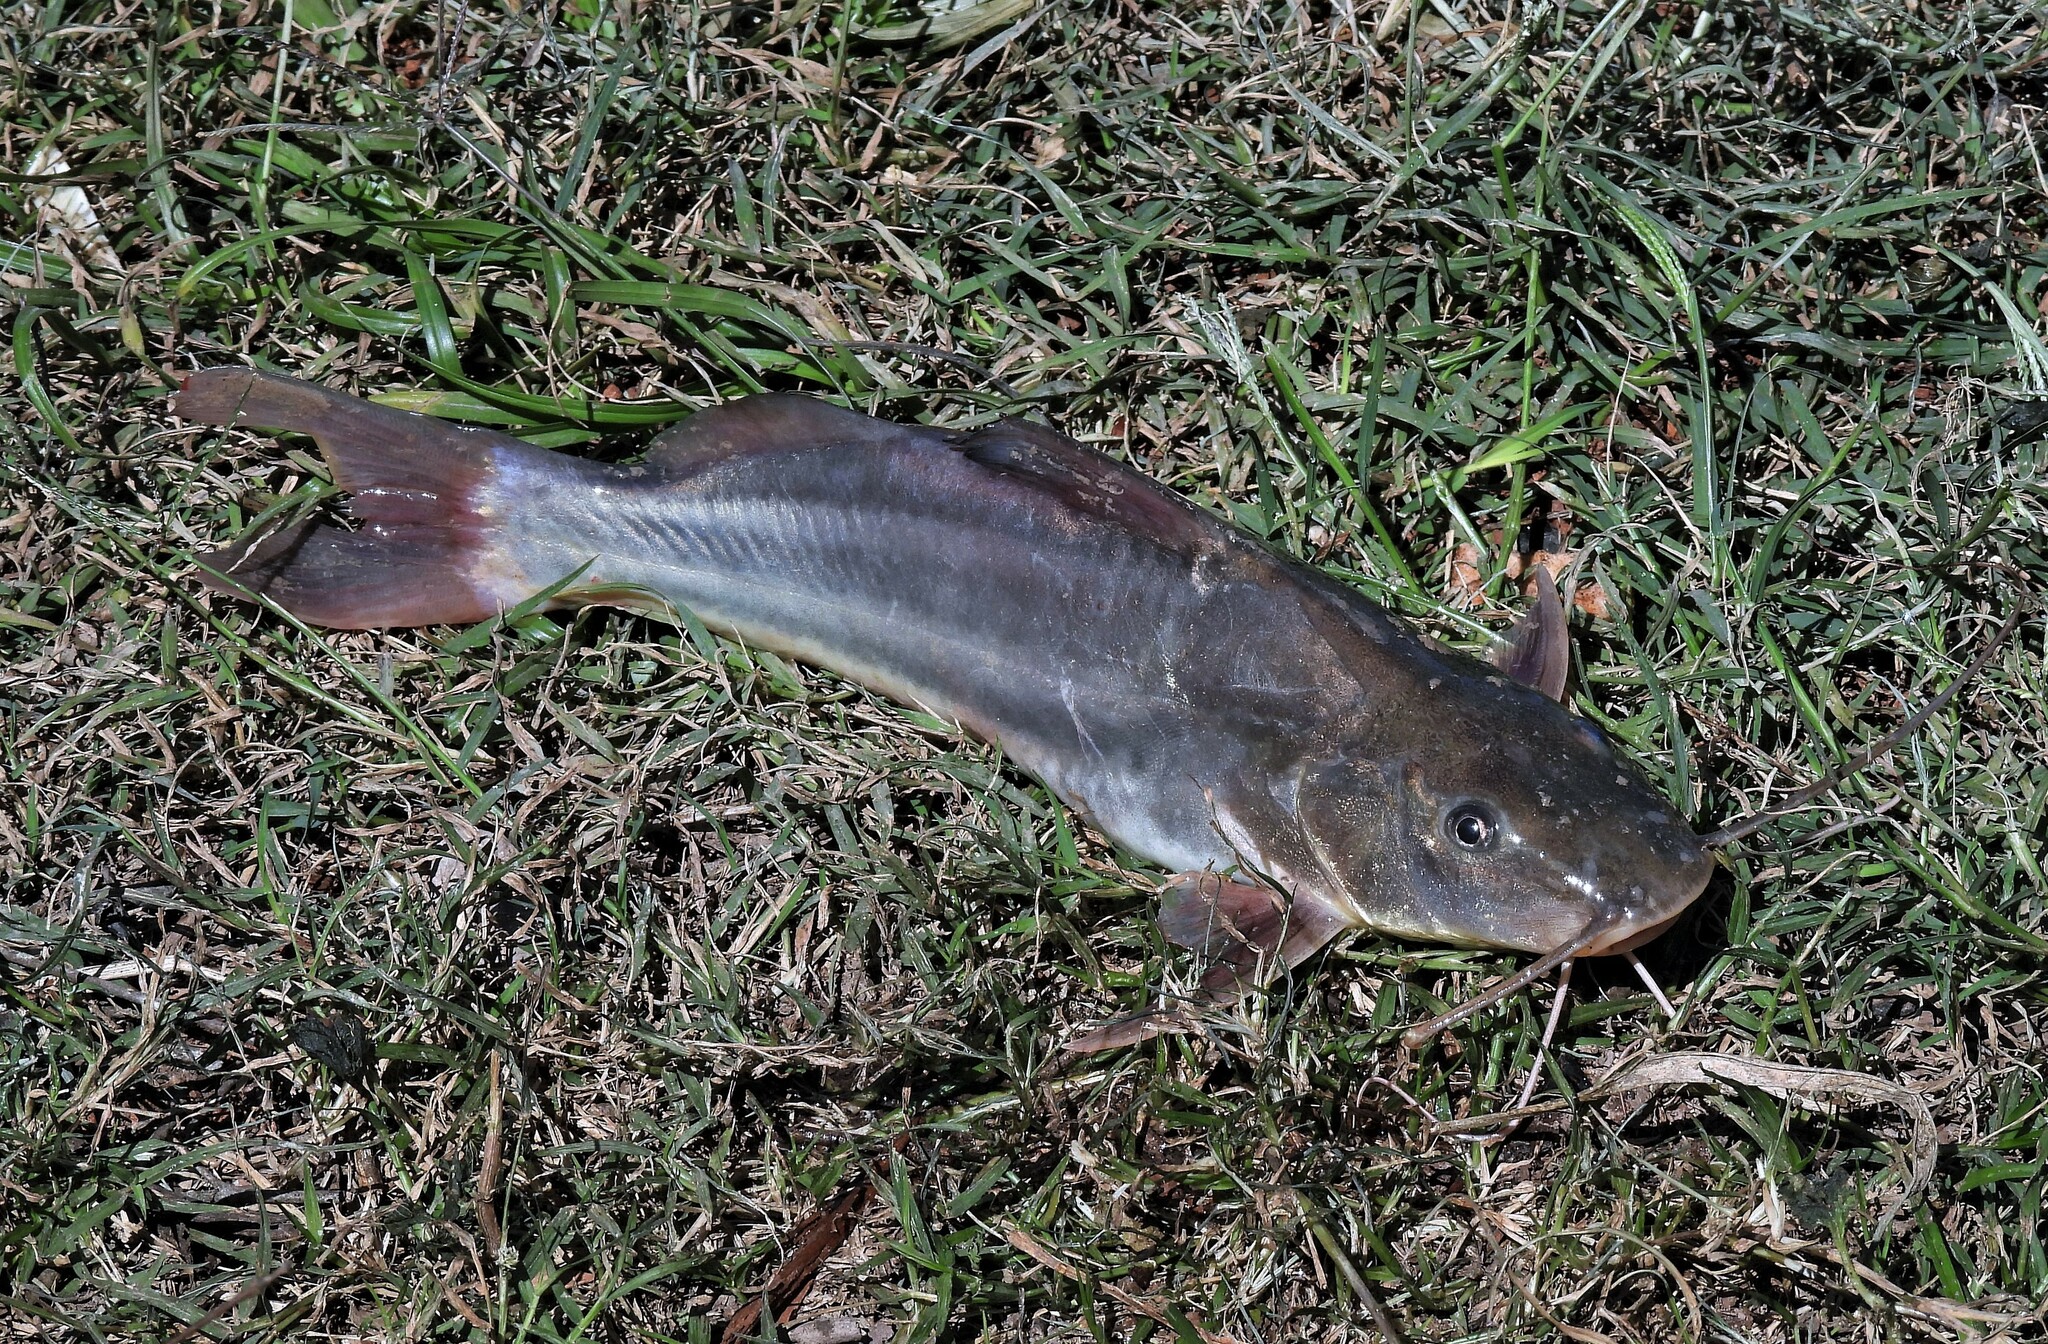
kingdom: Animalia
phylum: Chordata
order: Siluriformes
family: Pimelodidae
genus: Pimelodus
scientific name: Pimelodus albicans
